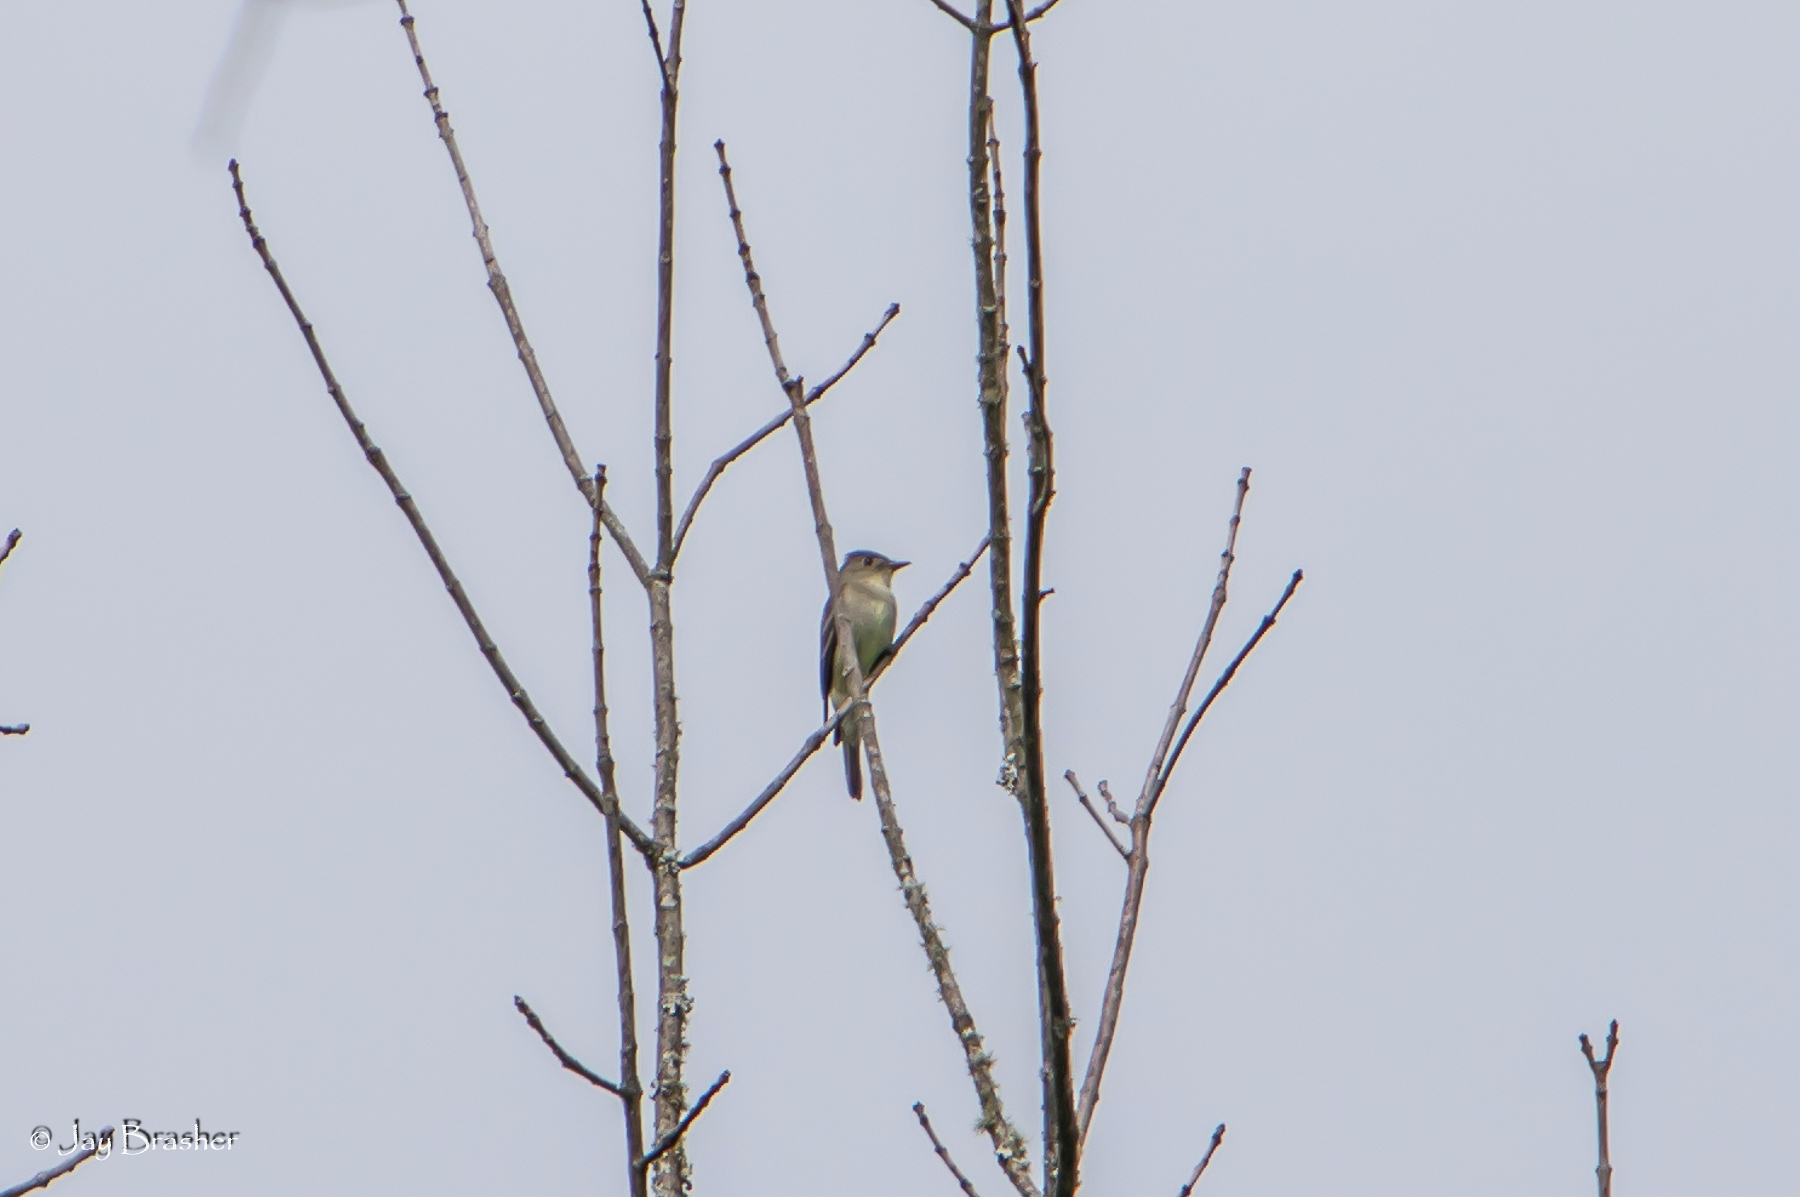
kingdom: Animalia
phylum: Chordata
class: Aves
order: Passeriformes
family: Tyrannidae
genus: Contopus
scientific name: Contopus virens
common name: Eastern wood-pewee
